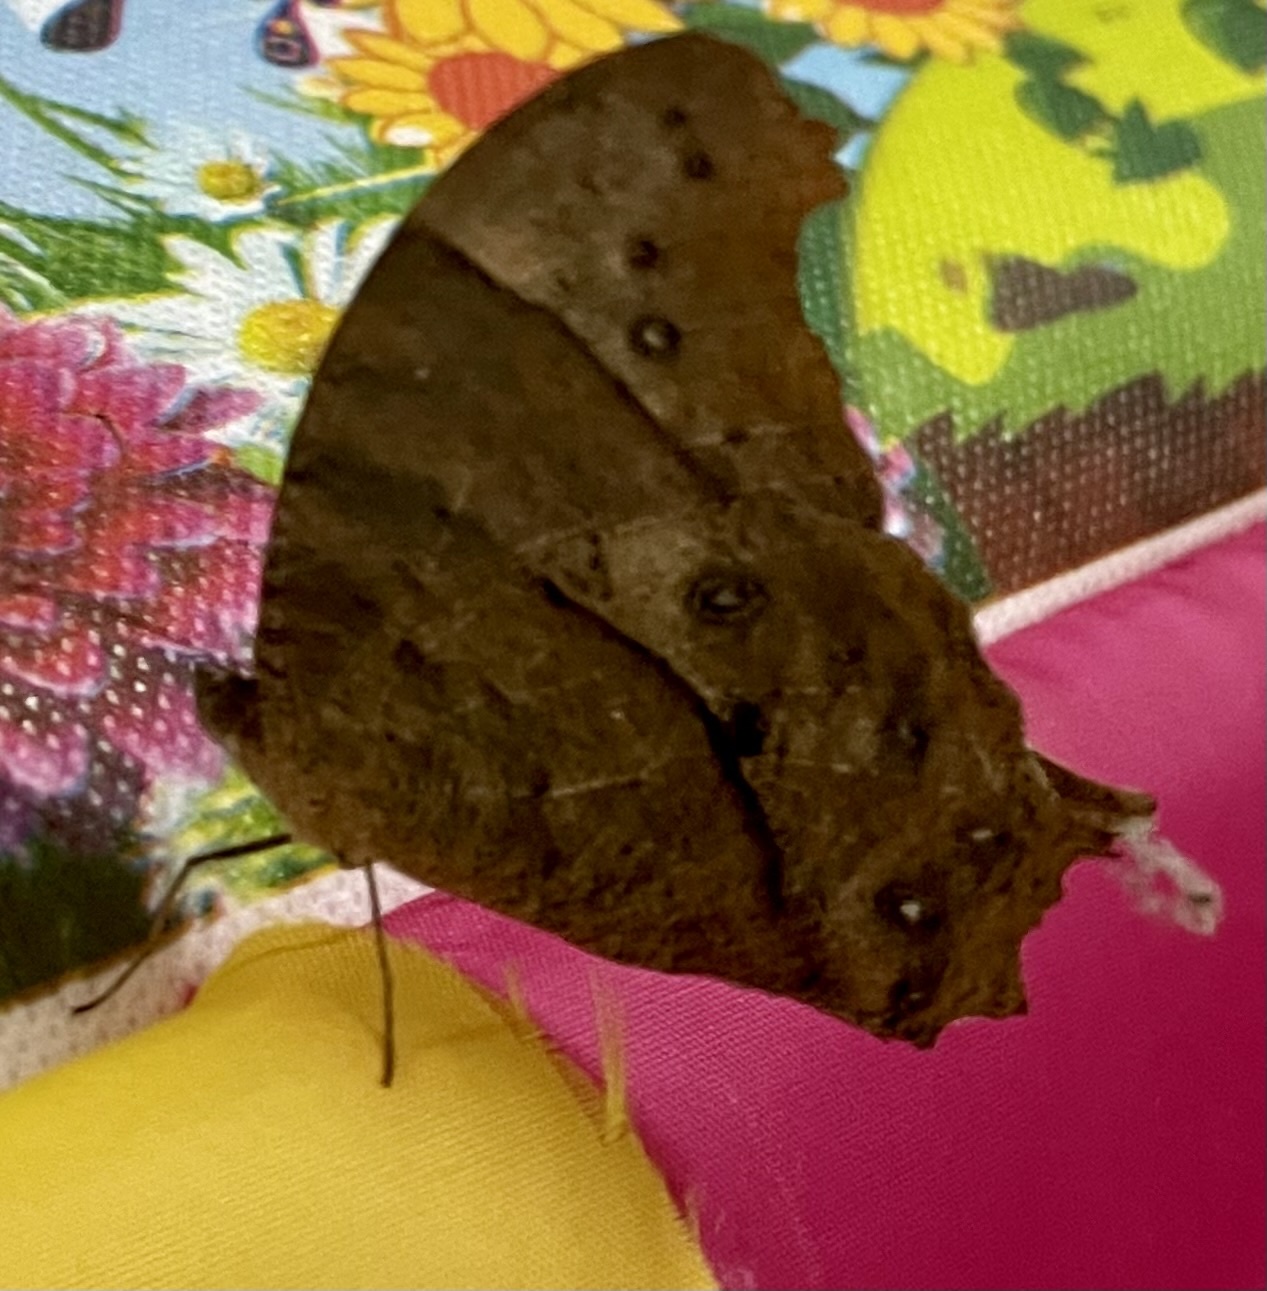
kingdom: Animalia
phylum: Arthropoda
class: Insecta
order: Lepidoptera
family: Nymphalidae
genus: Melanitis
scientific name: Melanitis phedima
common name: Dark evening brown
